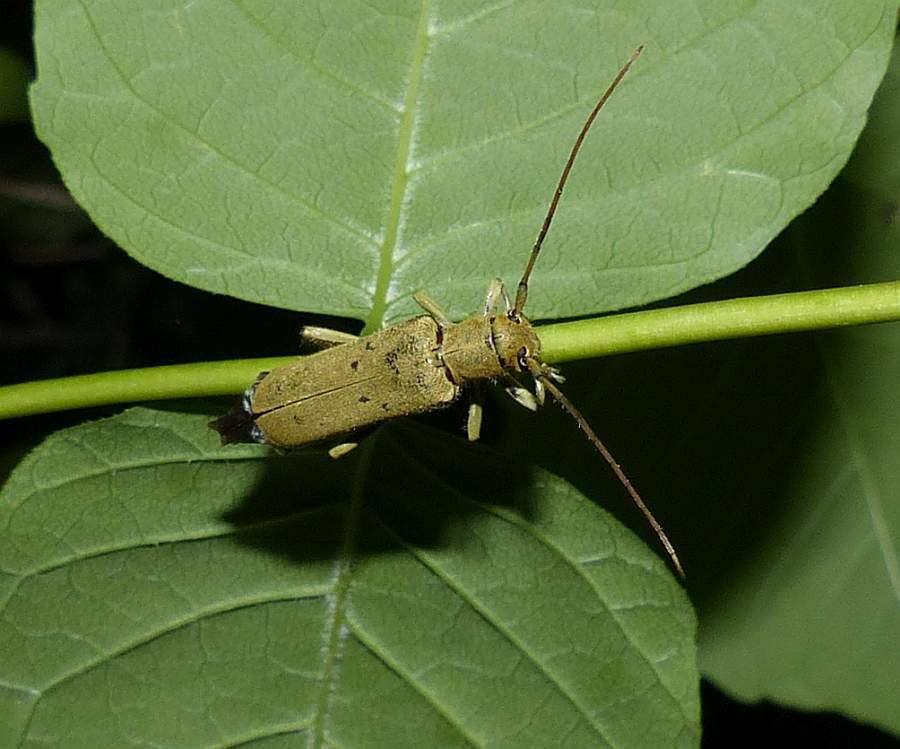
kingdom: Animalia
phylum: Arthropoda
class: Insecta
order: Coleoptera
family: Cerambycidae
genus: Saperda
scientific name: Saperda vestita
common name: Linden borer
